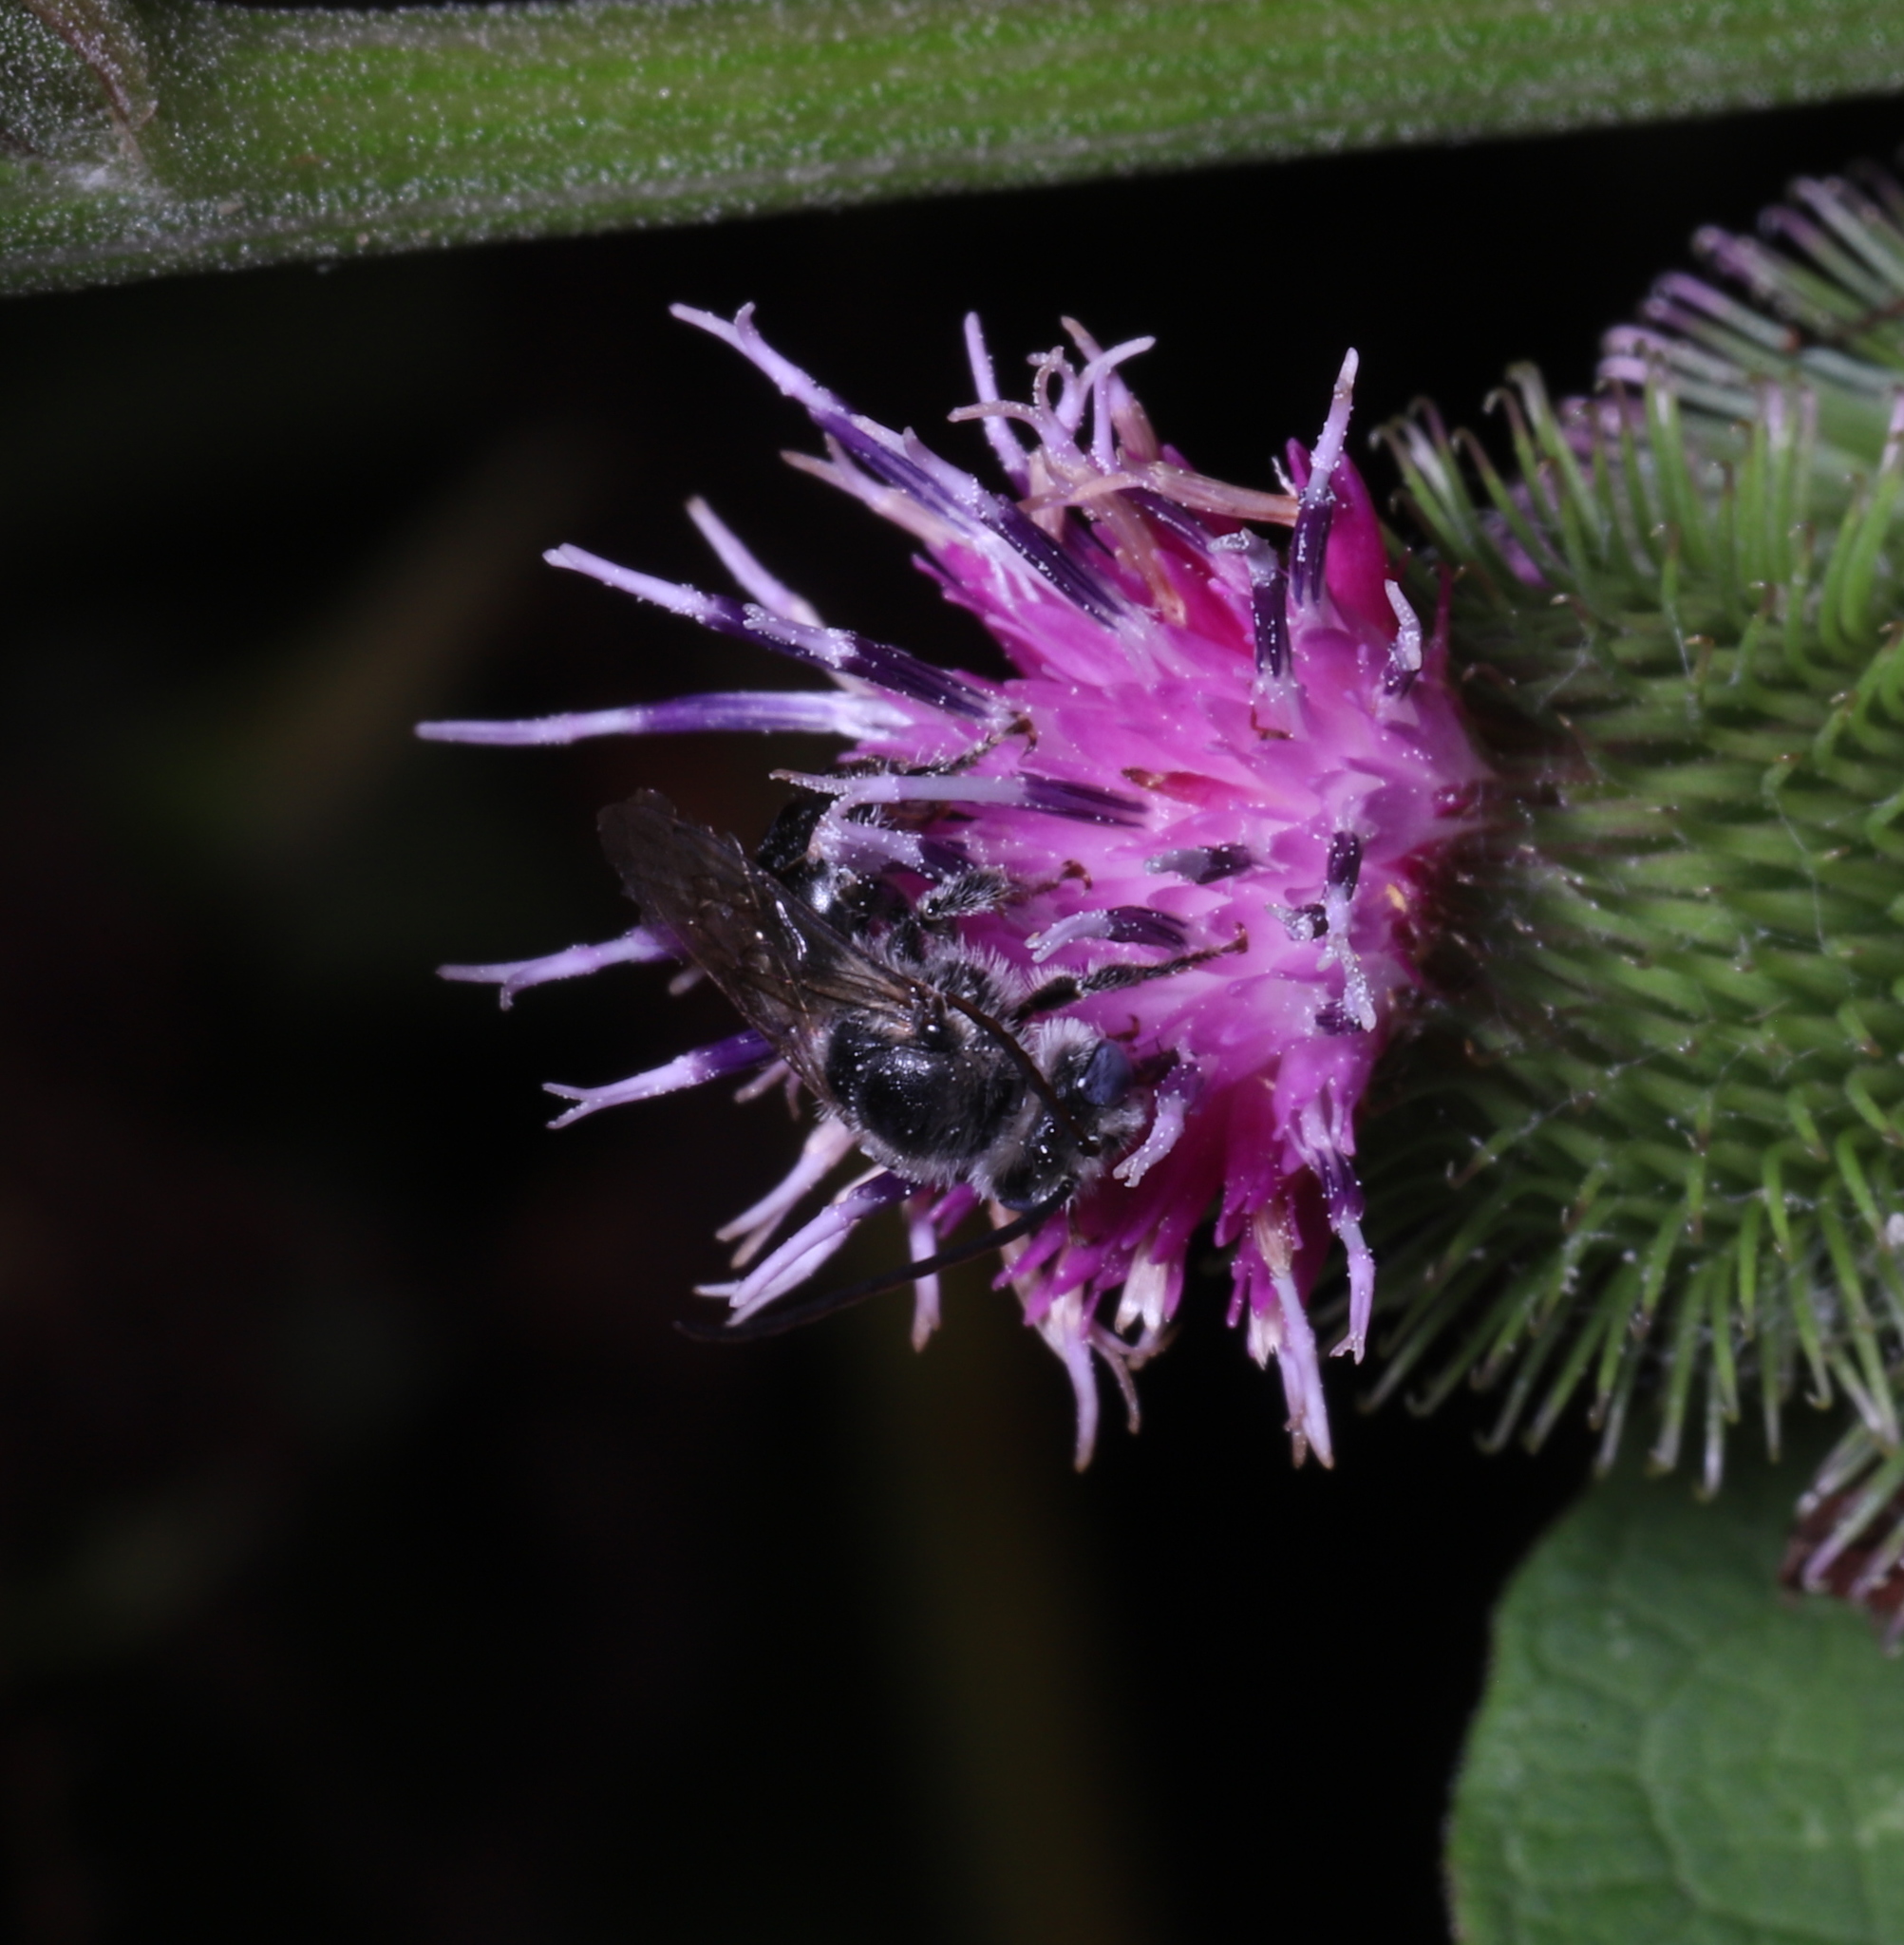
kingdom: Animalia
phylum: Arthropoda
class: Insecta
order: Hymenoptera
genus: Eumelissodes
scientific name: Eumelissodes
